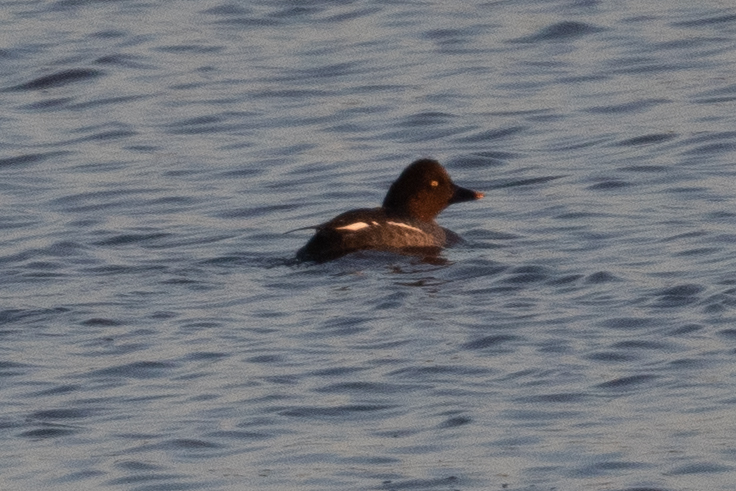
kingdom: Animalia
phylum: Chordata
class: Aves
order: Anseriformes
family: Anatidae
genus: Bucephala
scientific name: Bucephala clangula
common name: Common goldeneye
